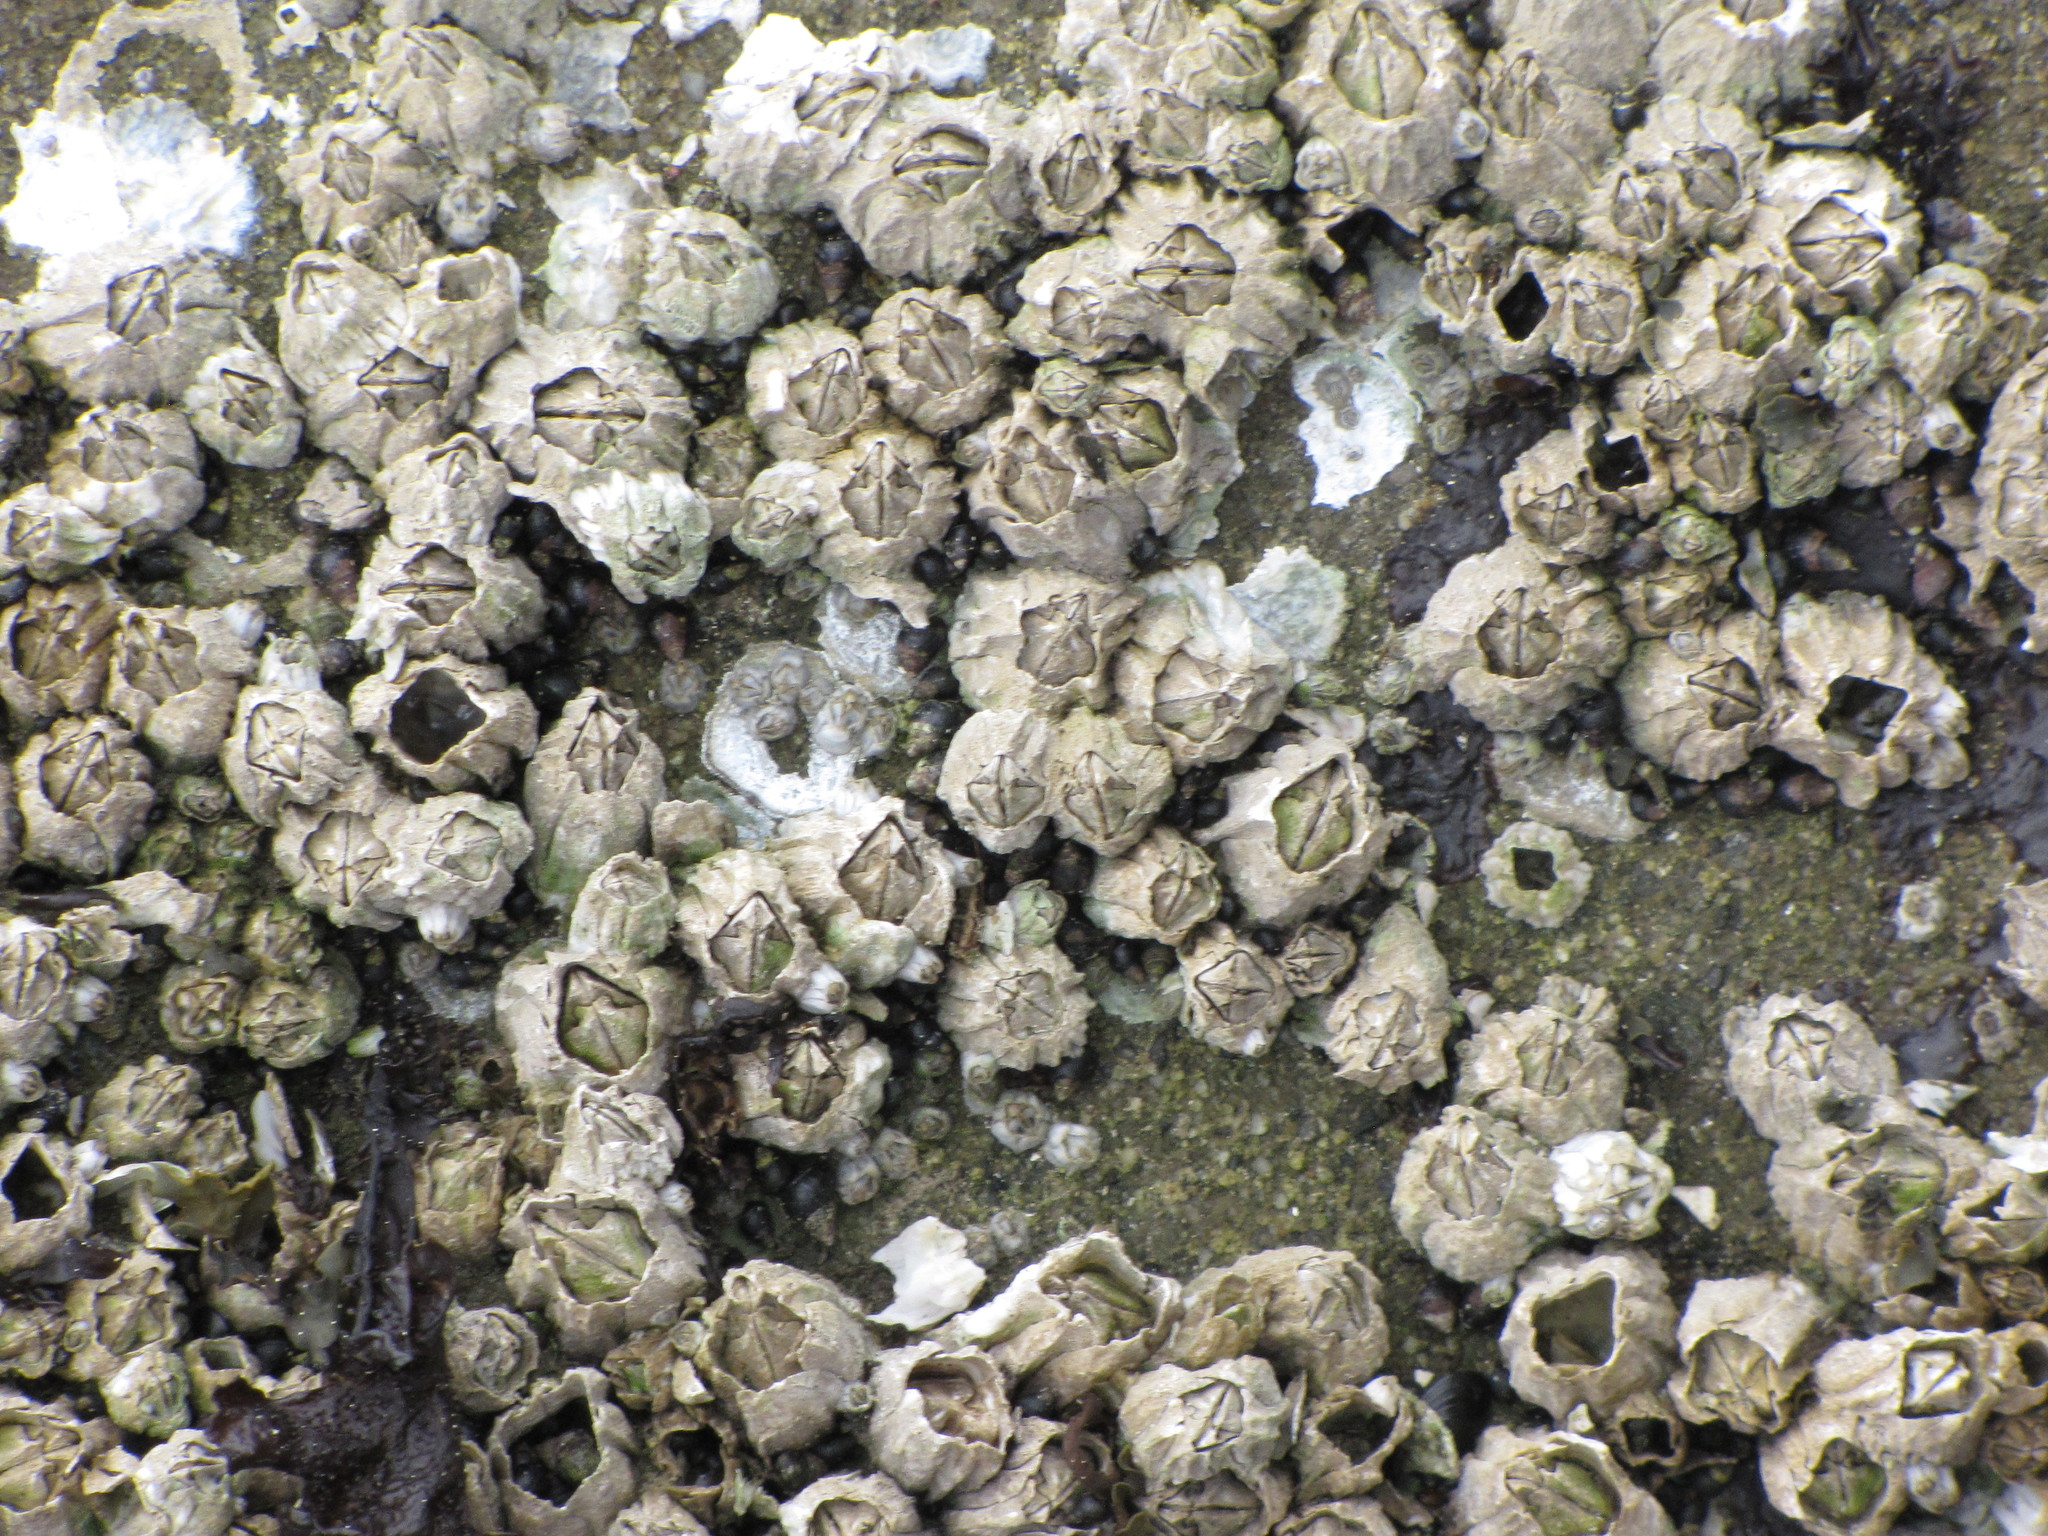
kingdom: Animalia
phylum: Arthropoda
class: Maxillopoda
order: Sessilia
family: Balanidae
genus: Balanus
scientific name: Balanus glandula
